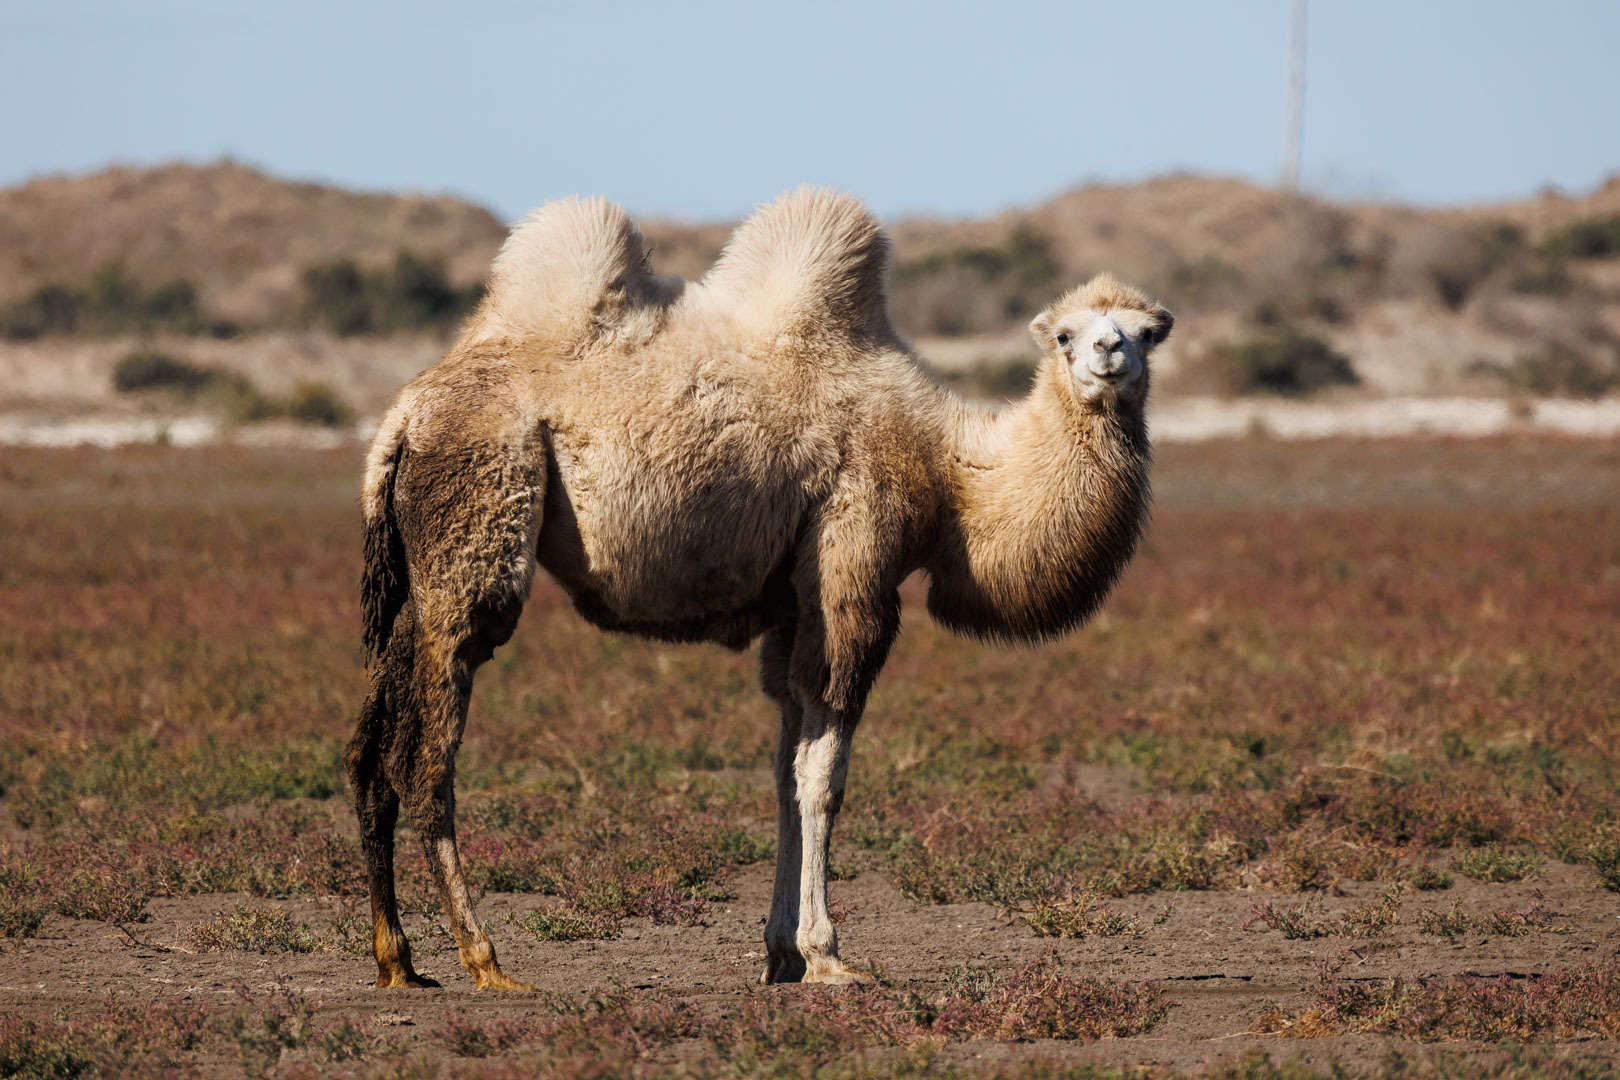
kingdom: Animalia
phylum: Chordata
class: Mammalia
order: Artiodactyla
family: Camelidae
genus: Camelus
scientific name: Camelus bactrianus
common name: Bactrian camel
